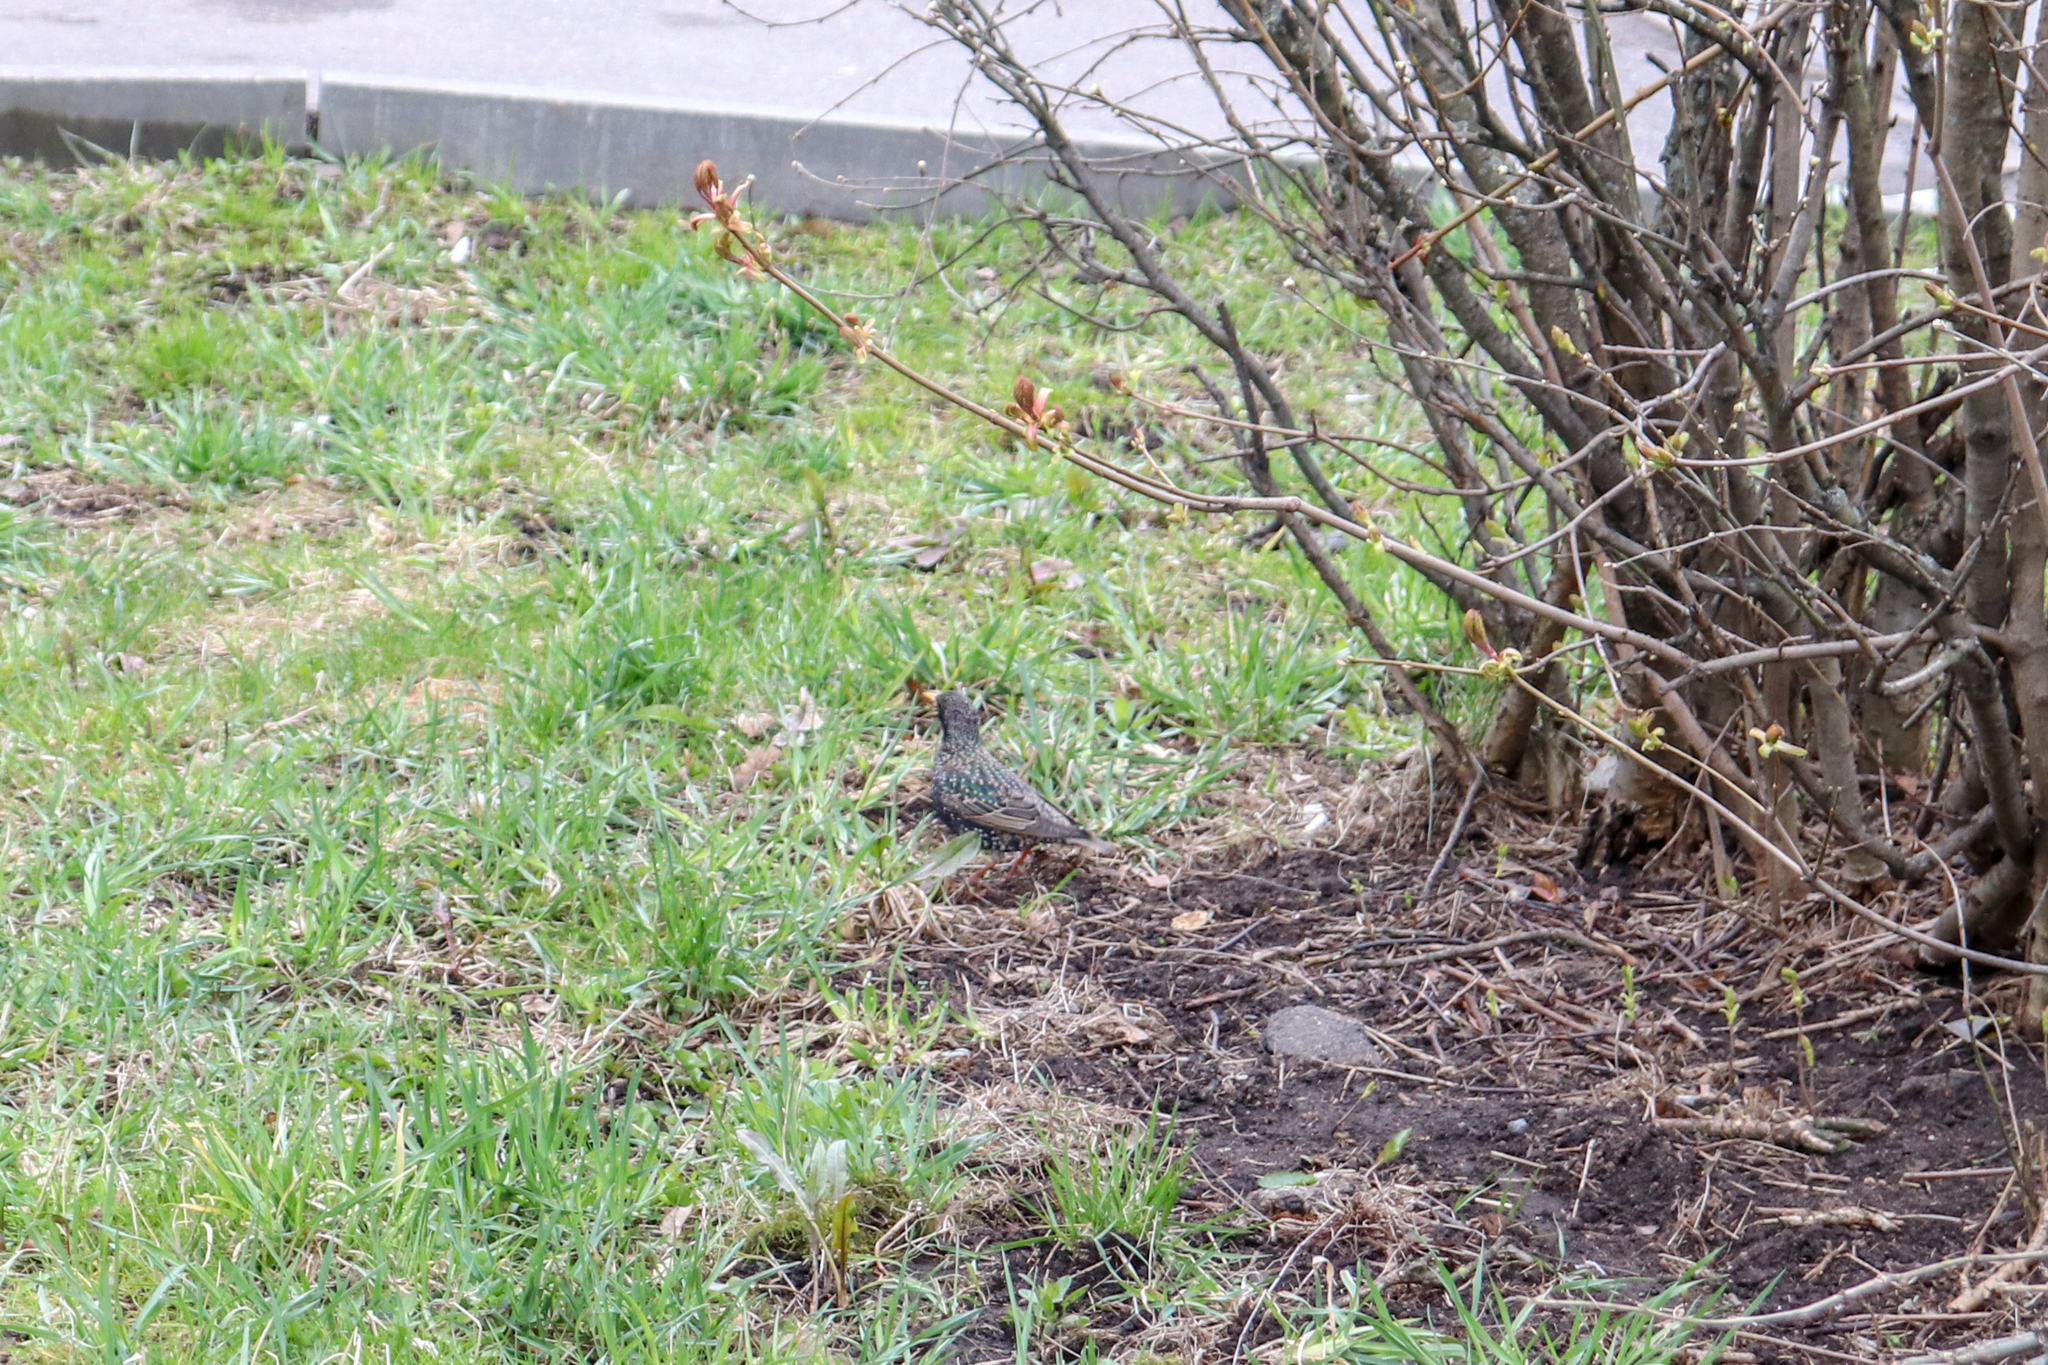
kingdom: Animalia
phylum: Chordata
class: Aves
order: Passeriformes
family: Sturnidae
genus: Sturnus
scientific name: Sturnus vulgaris
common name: Common starling
